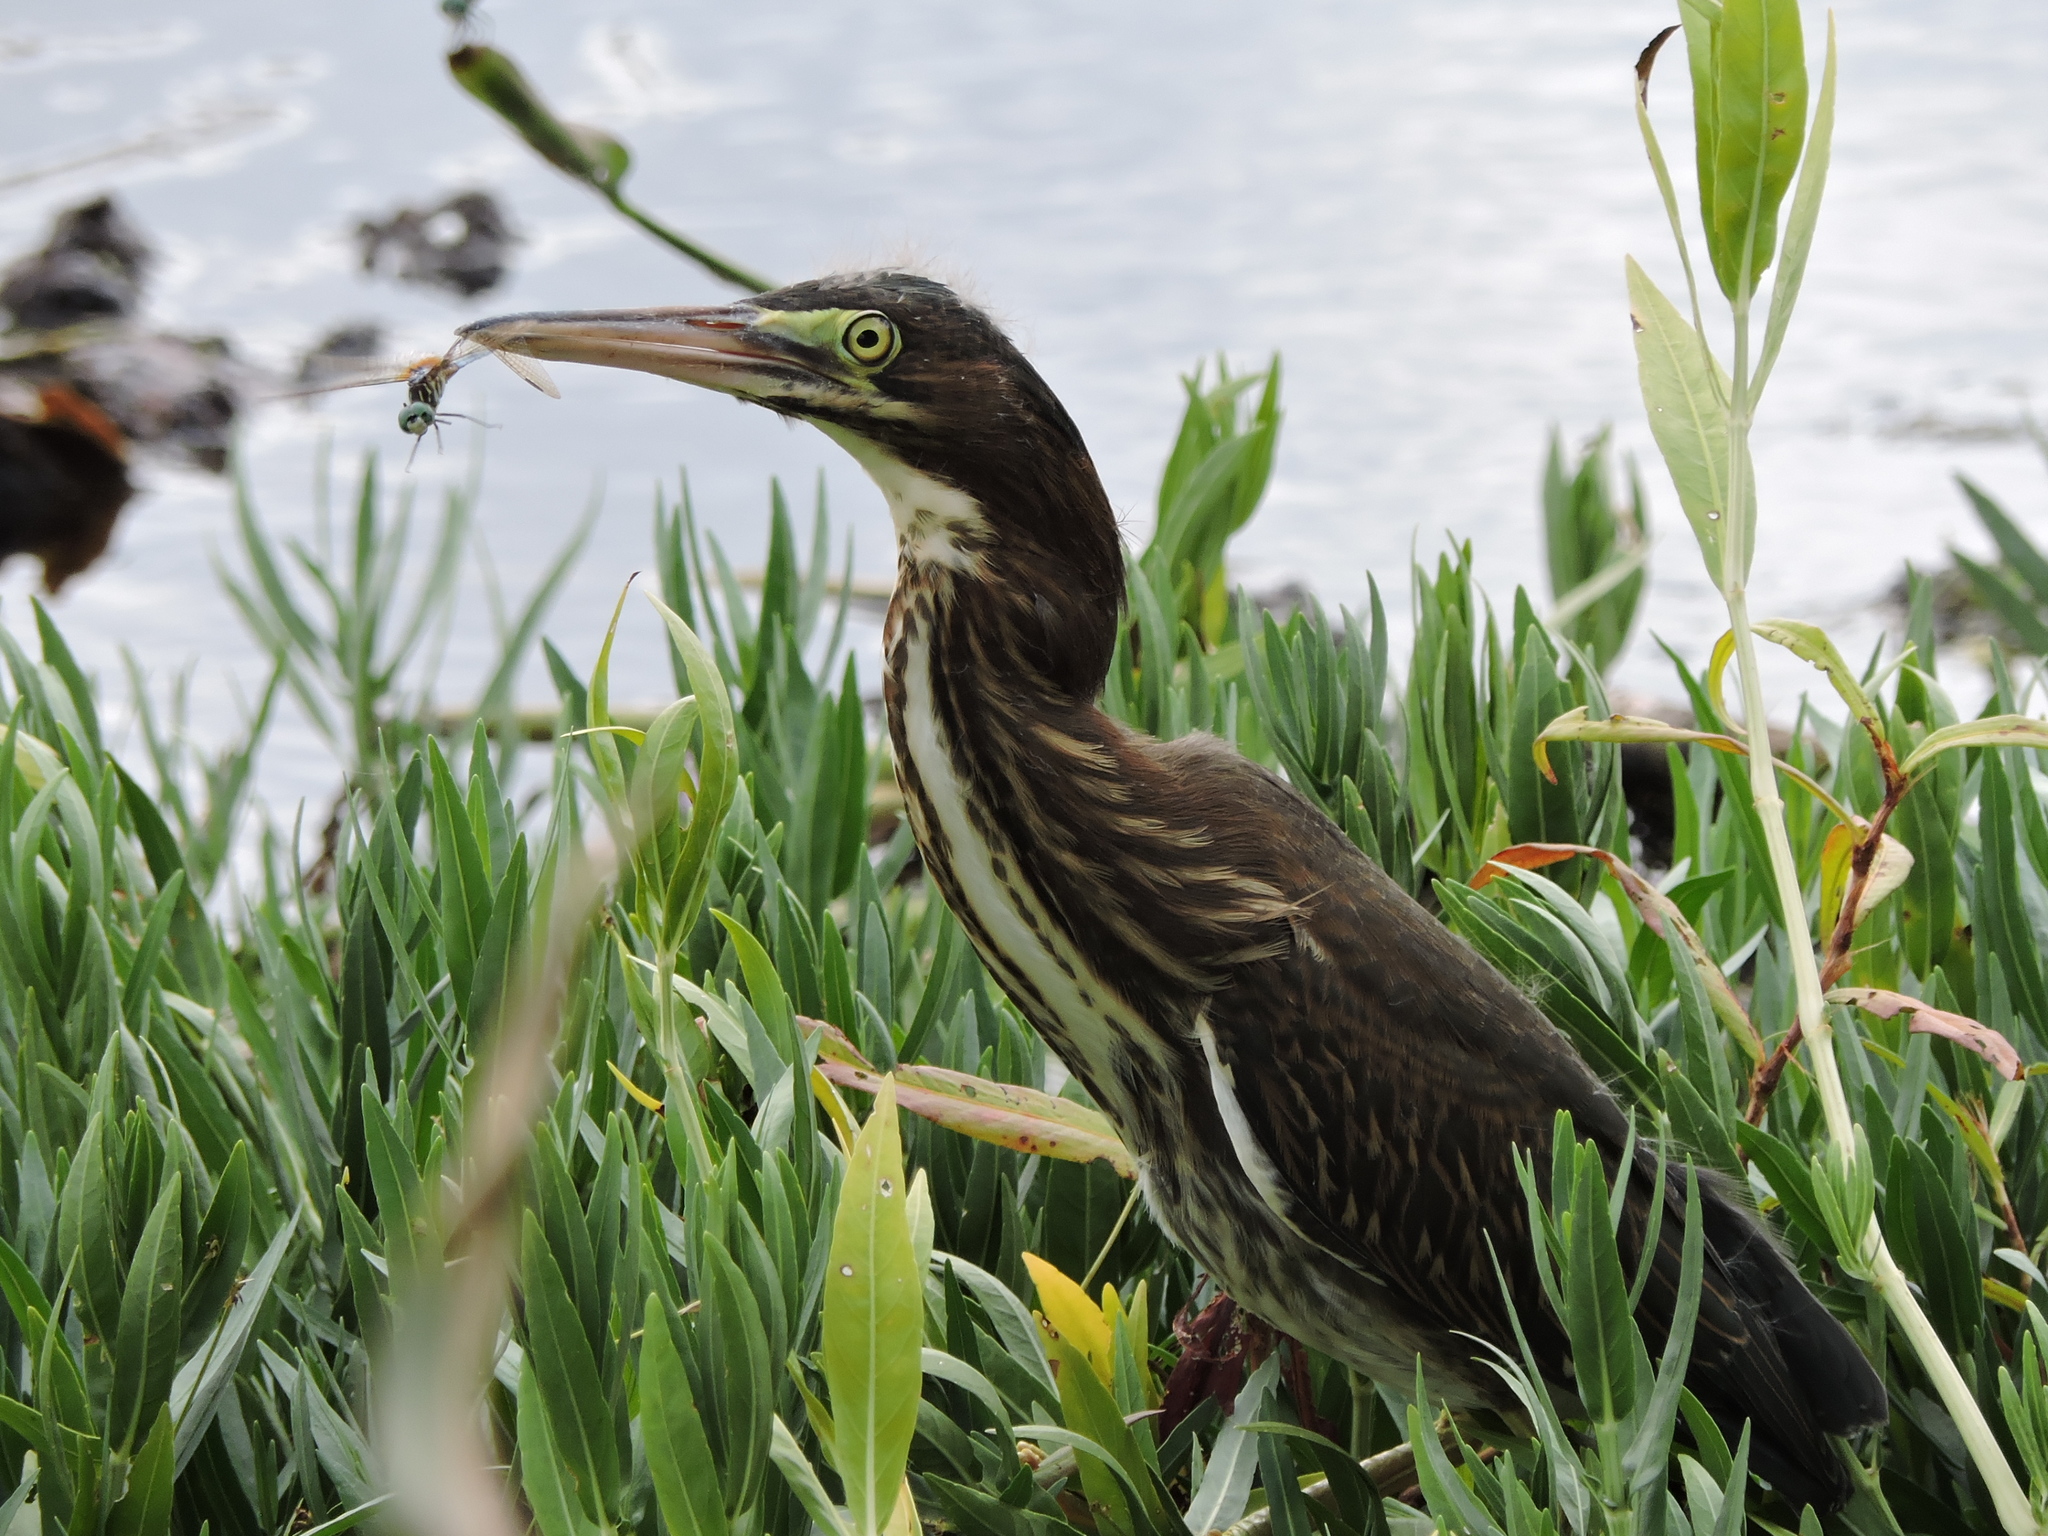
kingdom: Animalia
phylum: Chordata
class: Aves
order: Pelecaniformes
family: Ardeidae
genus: Butorides
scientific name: Butorides virescens
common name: Green heron
